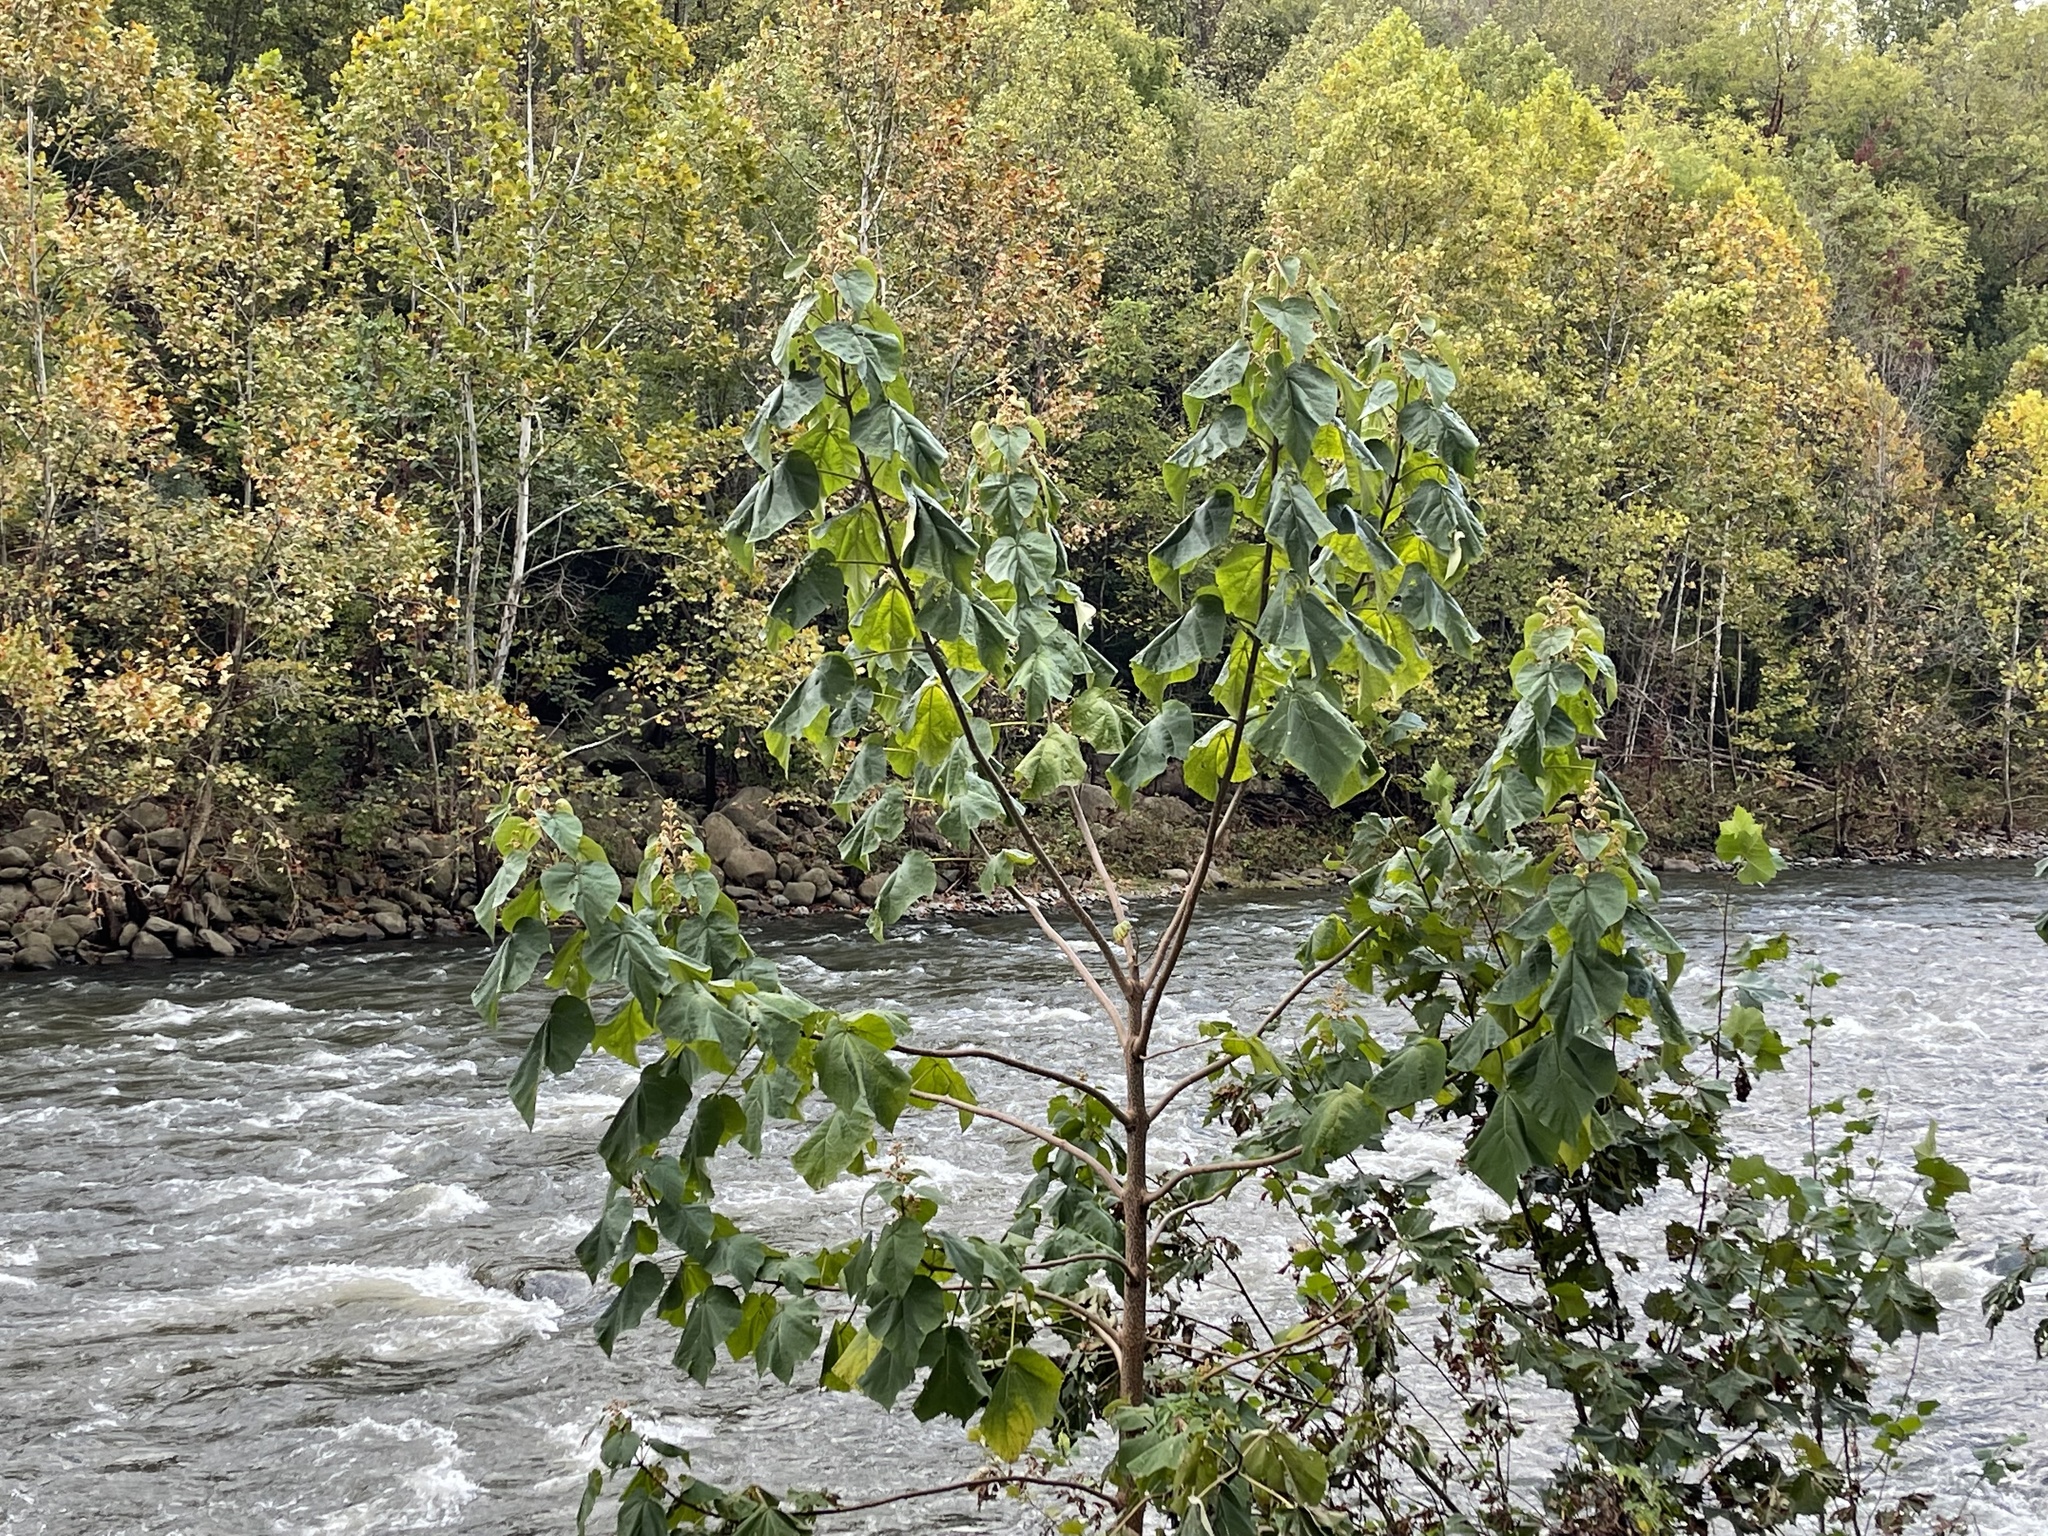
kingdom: Plantae
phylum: Tracheophyta
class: Magnoliopsida
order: Lamiales
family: Paulowniaceae
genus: Paulownia
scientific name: Paulownia tomentosa
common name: Foxglove-tree
